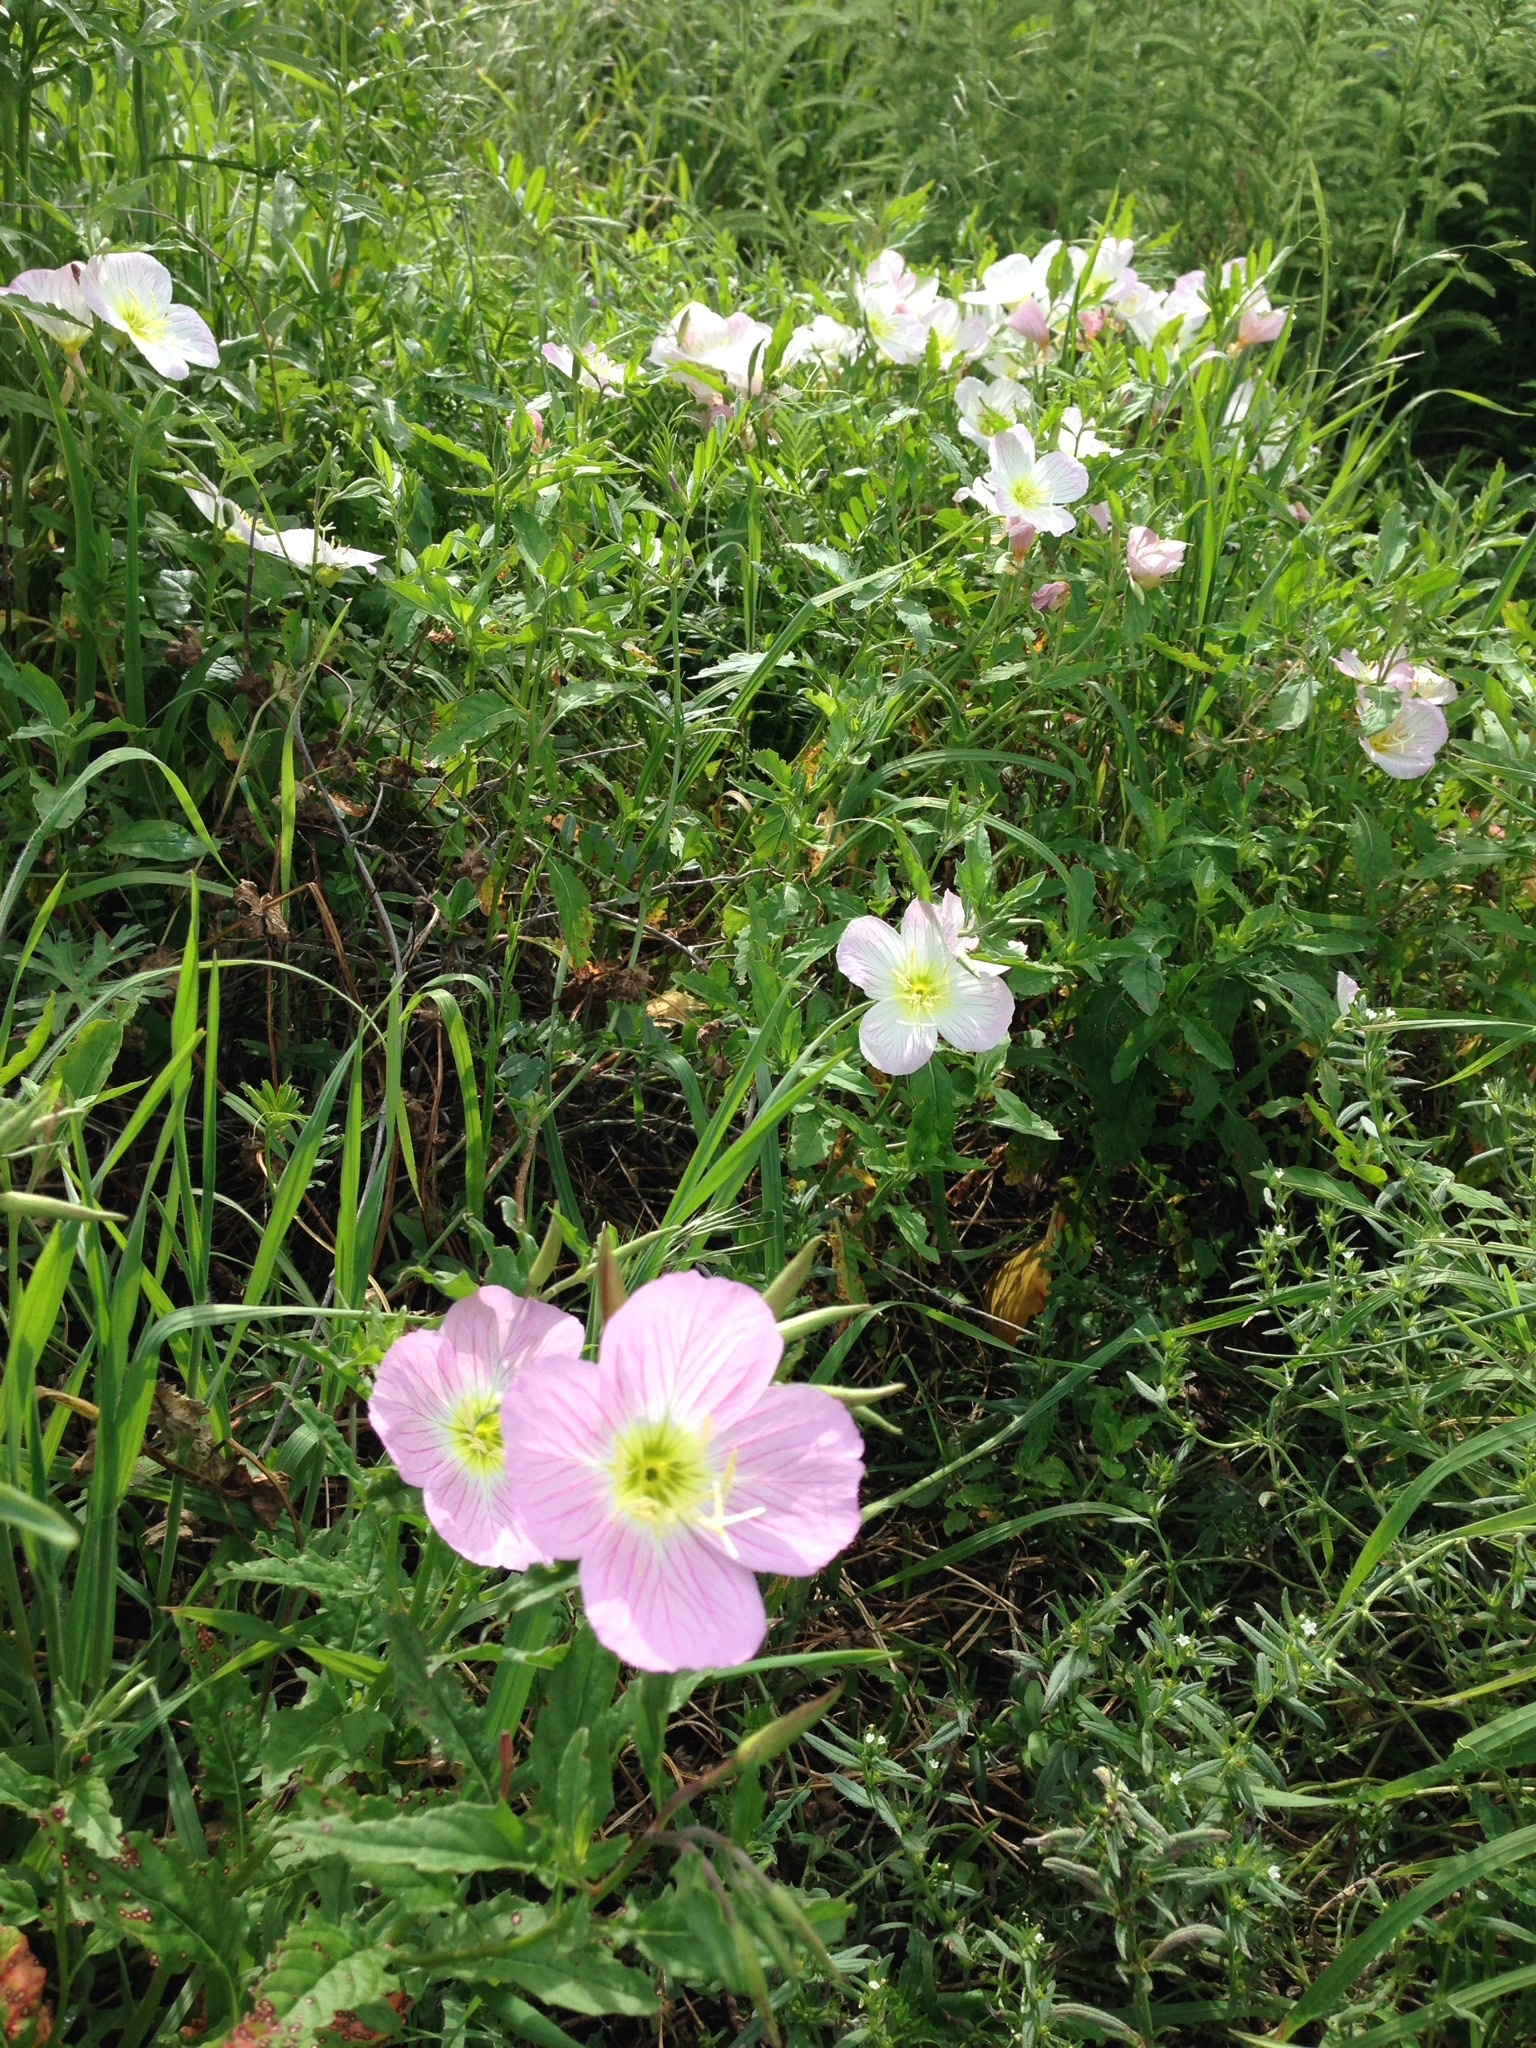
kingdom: Plantae
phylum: Tracheophyta
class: Magnoliopsida
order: Myrtales
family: Onagraceae
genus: Oenothera
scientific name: Oenothera speciosa
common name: White evening-primrose
